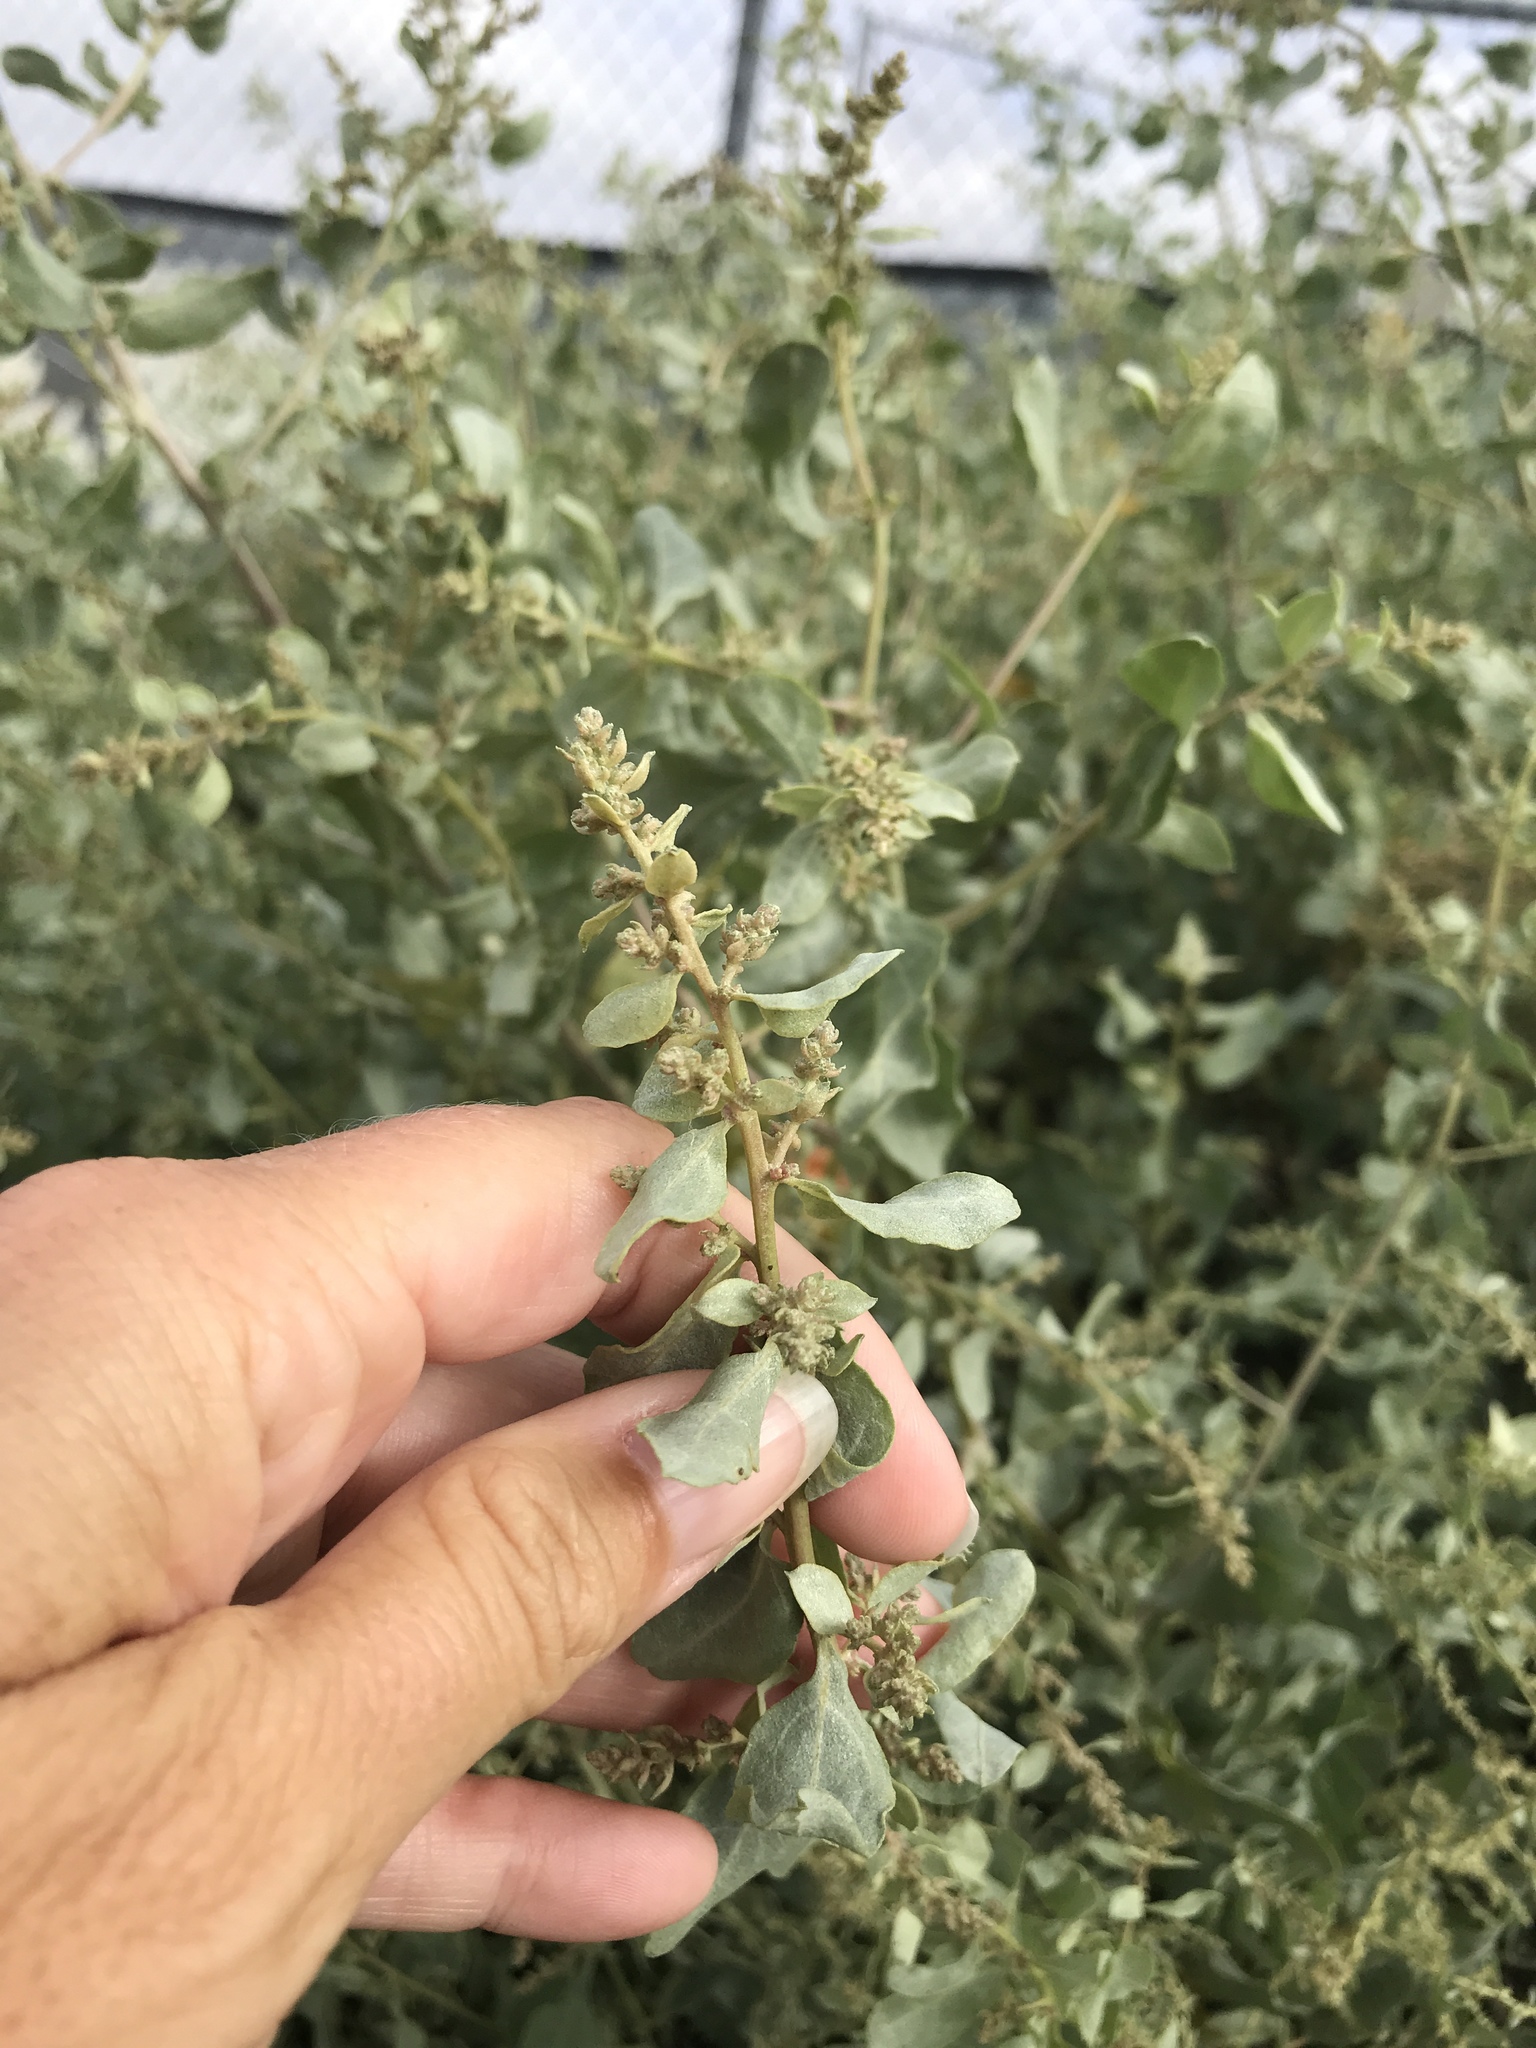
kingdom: Plantae
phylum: Tracheophyta
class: Magnoliopsida
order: Caryophyllales
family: Amaranthaceae
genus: Atriplex
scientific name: Atriplex polycarpa
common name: Desert saltbush
